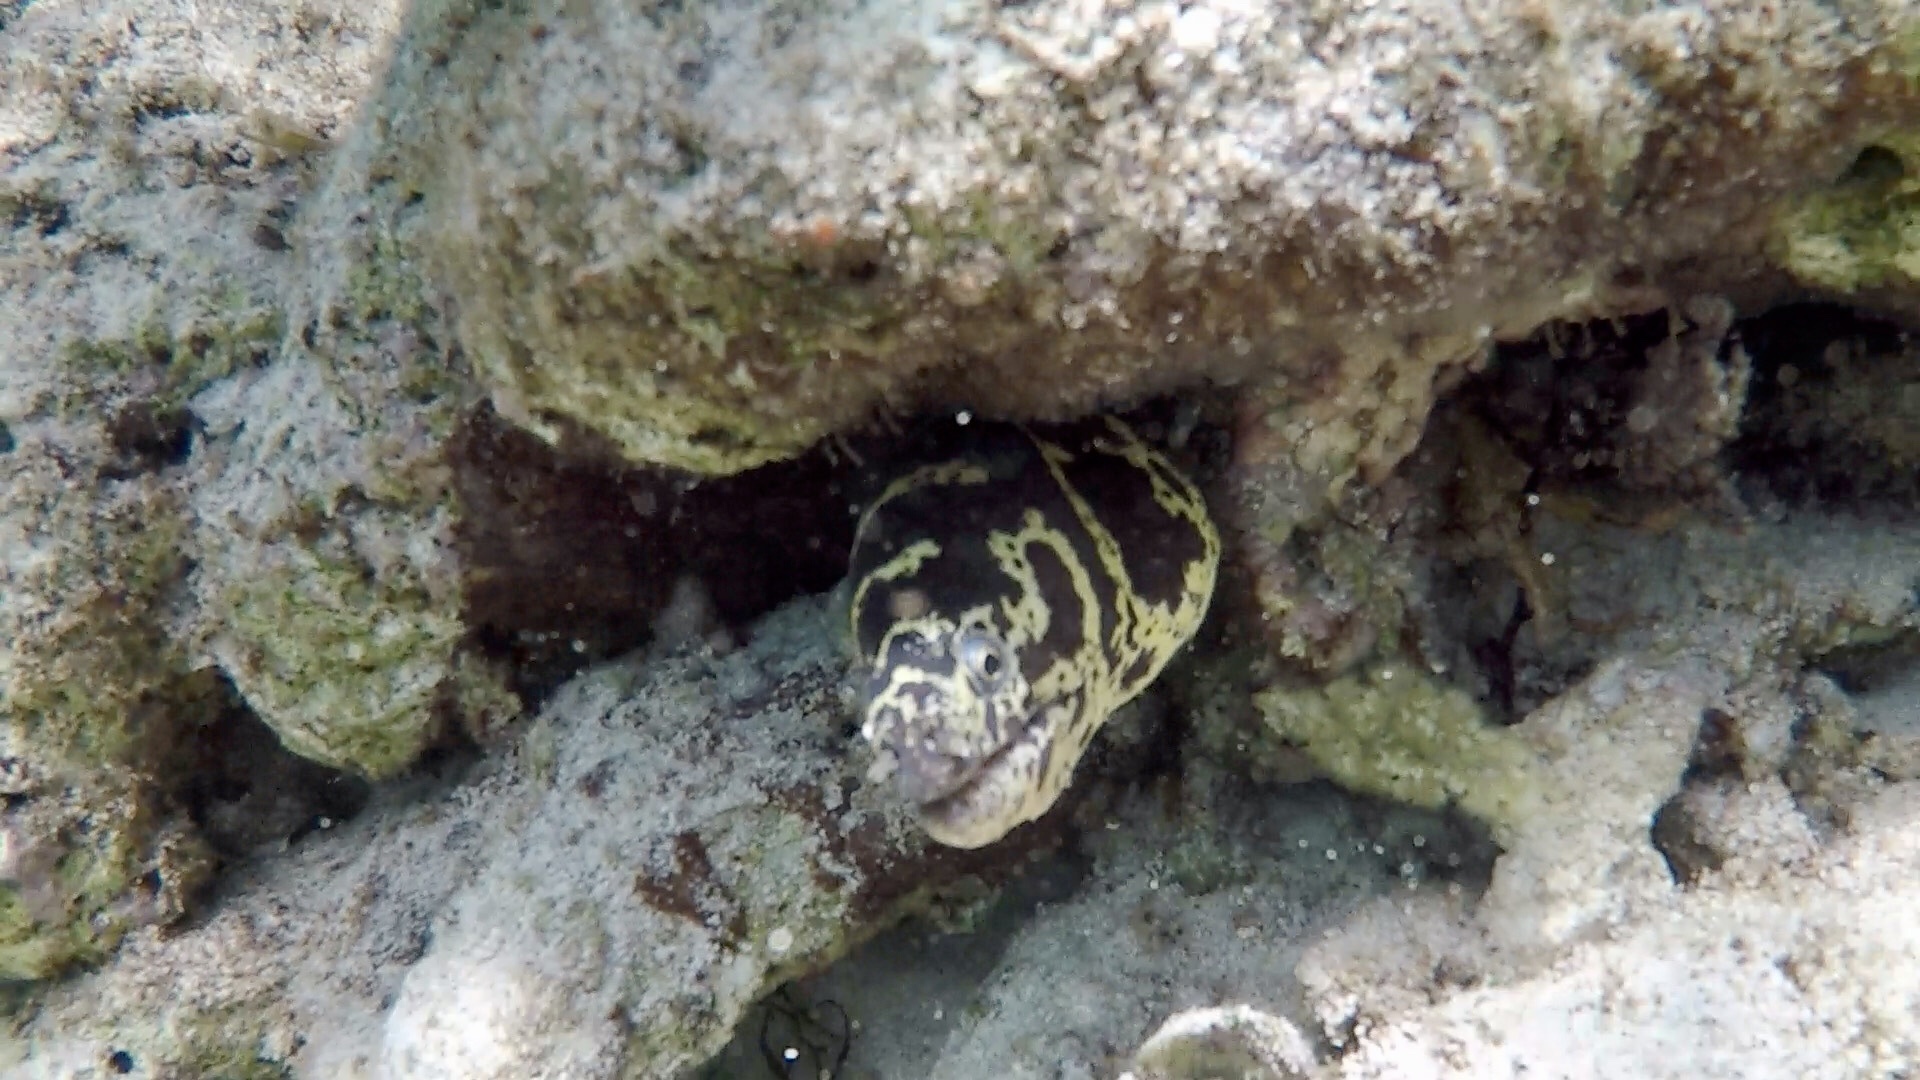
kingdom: Animalia
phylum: Chordata
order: Anguilliformes
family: Muraenidae
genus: Echidna
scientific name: Echidna catenata
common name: Chain moray
